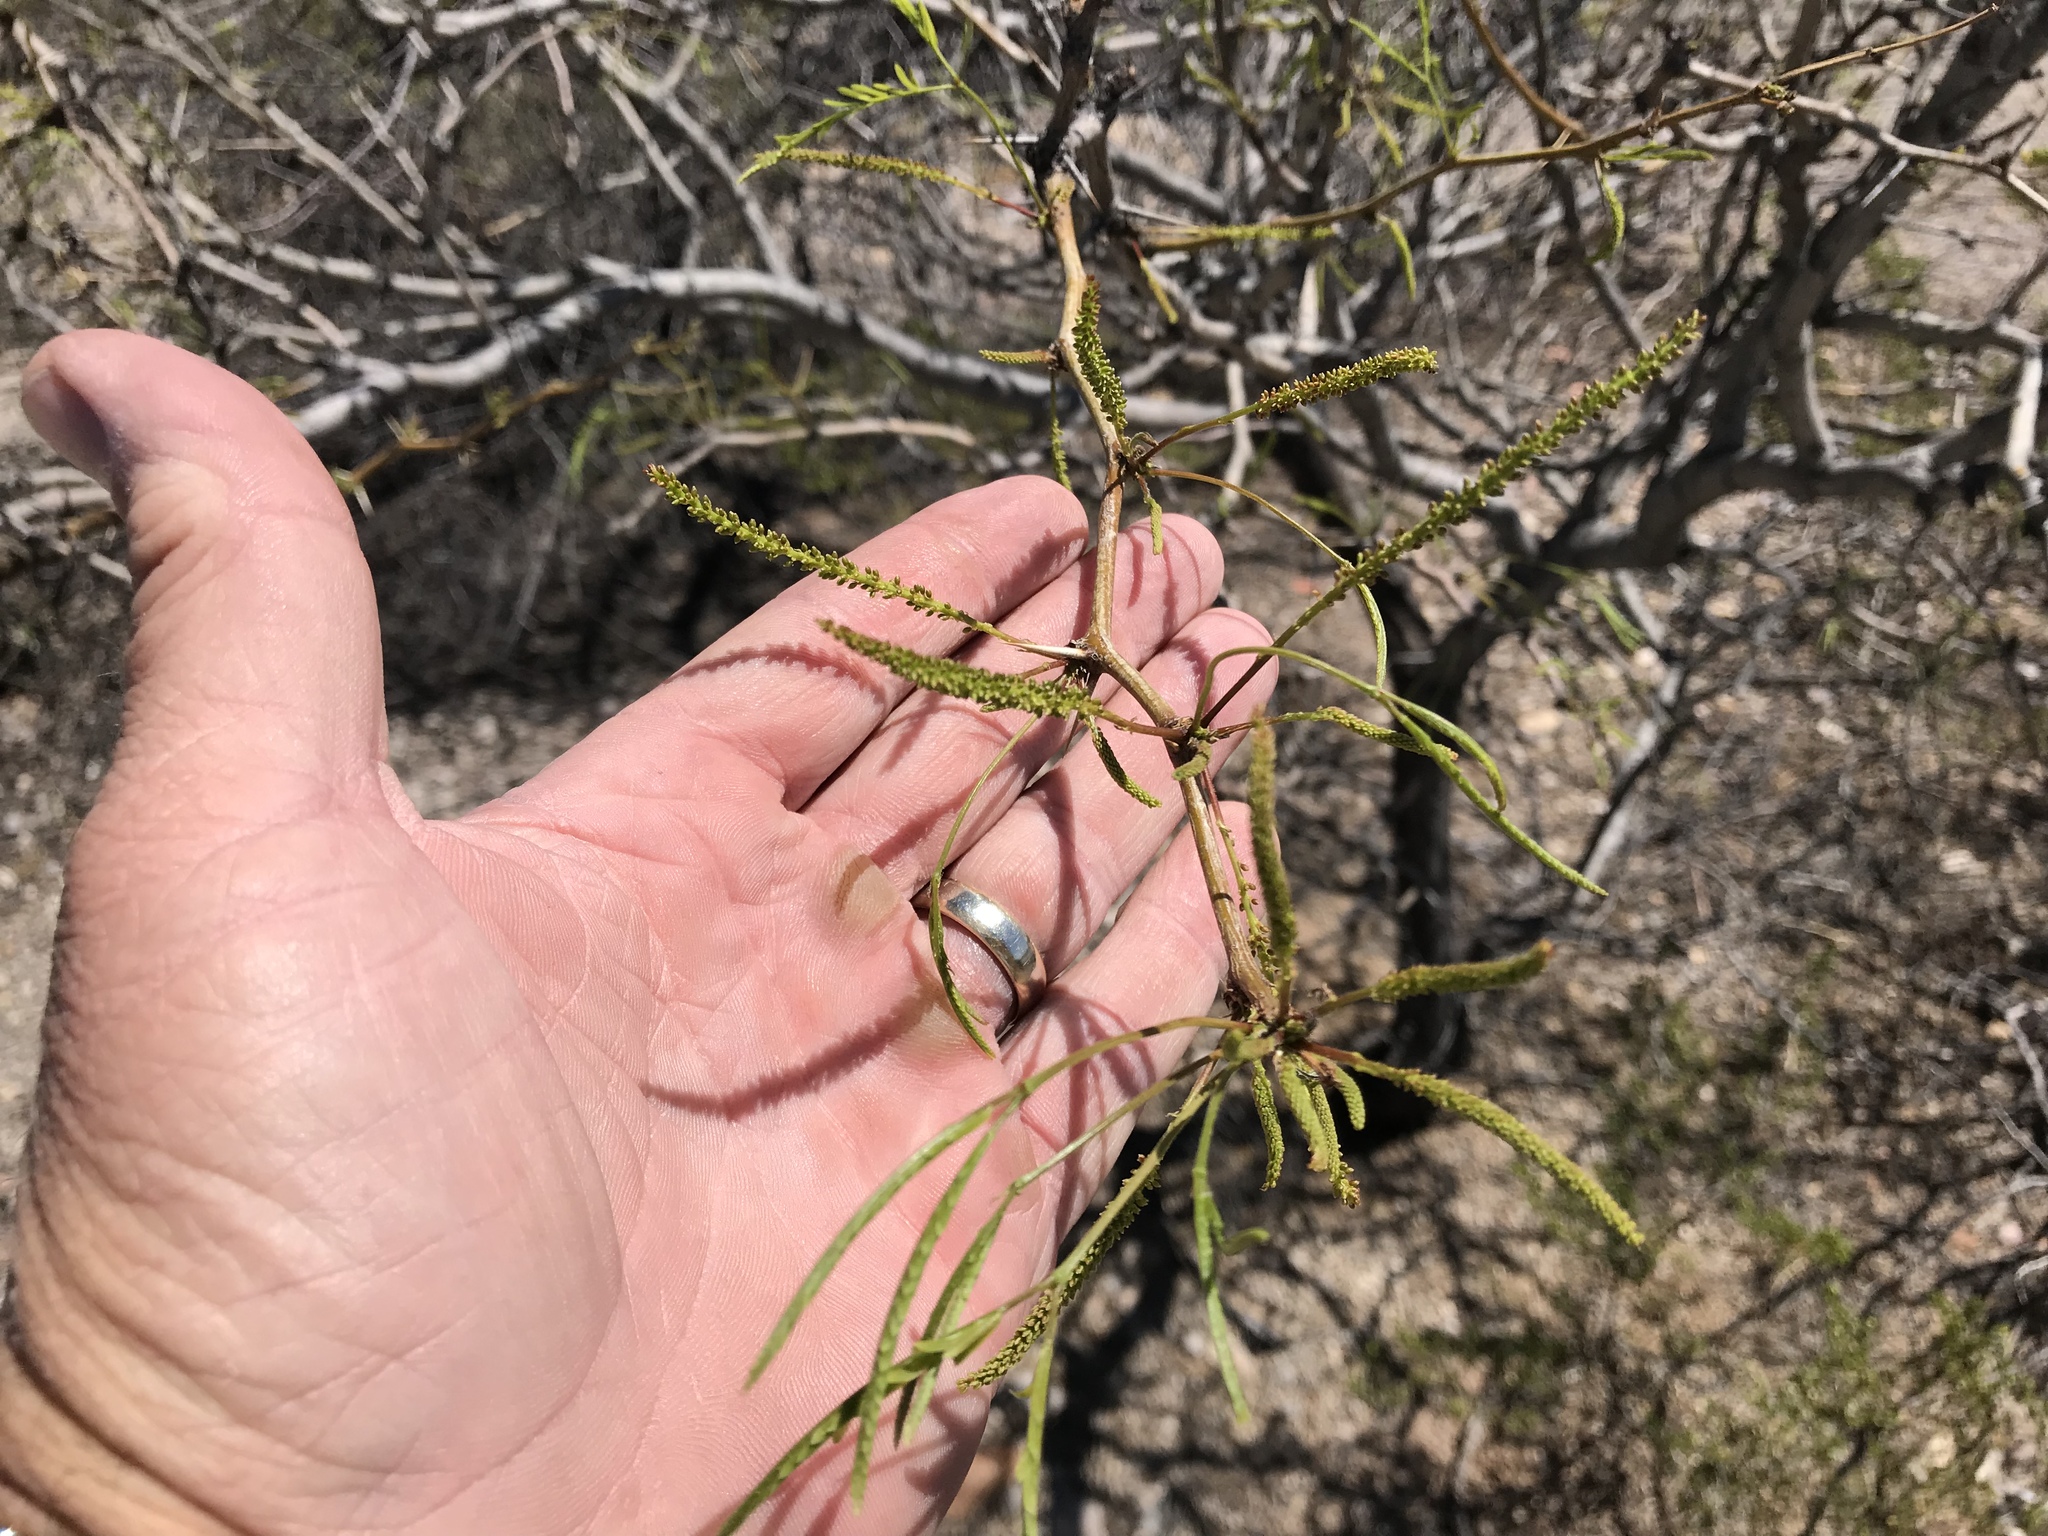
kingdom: Plantae
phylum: Tracheophyta
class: Magnoliopsida
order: Fabales
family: Fabaceae
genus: Prosopis
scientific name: Prosopis glandulosa
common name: Honey mesquite
